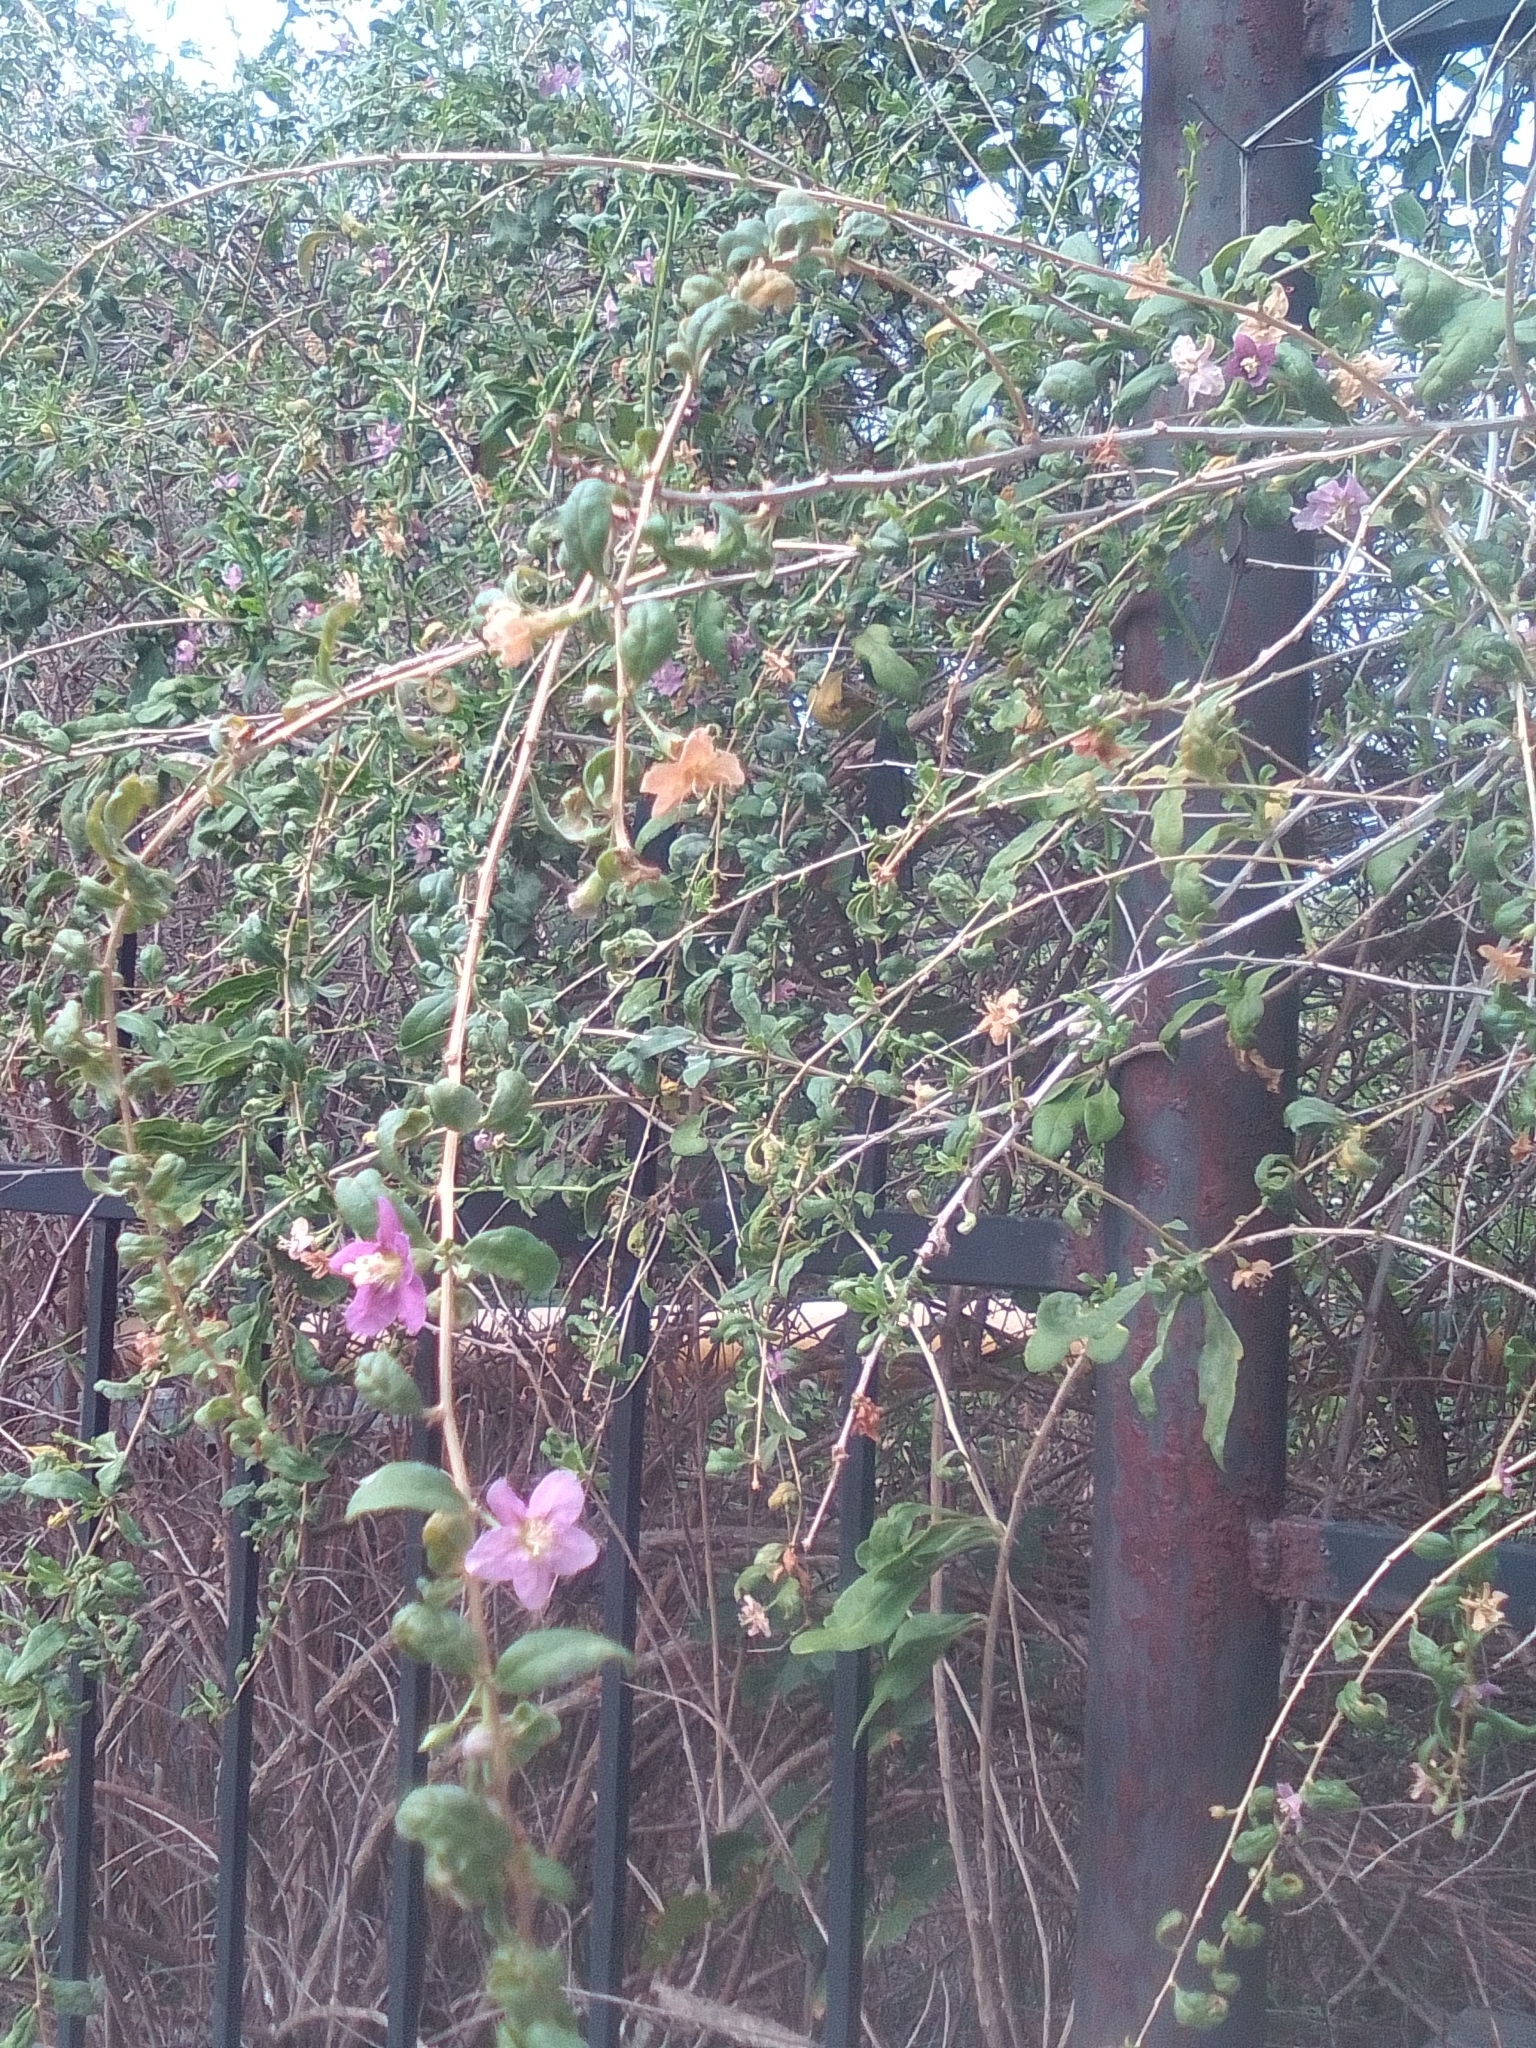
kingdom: Plantae
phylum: Tracheophyta
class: Magnoliopsida
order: Solanales
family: Solanaceae
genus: Lycium
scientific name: Lycium barbarum
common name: Duke of argyll's teaplant
